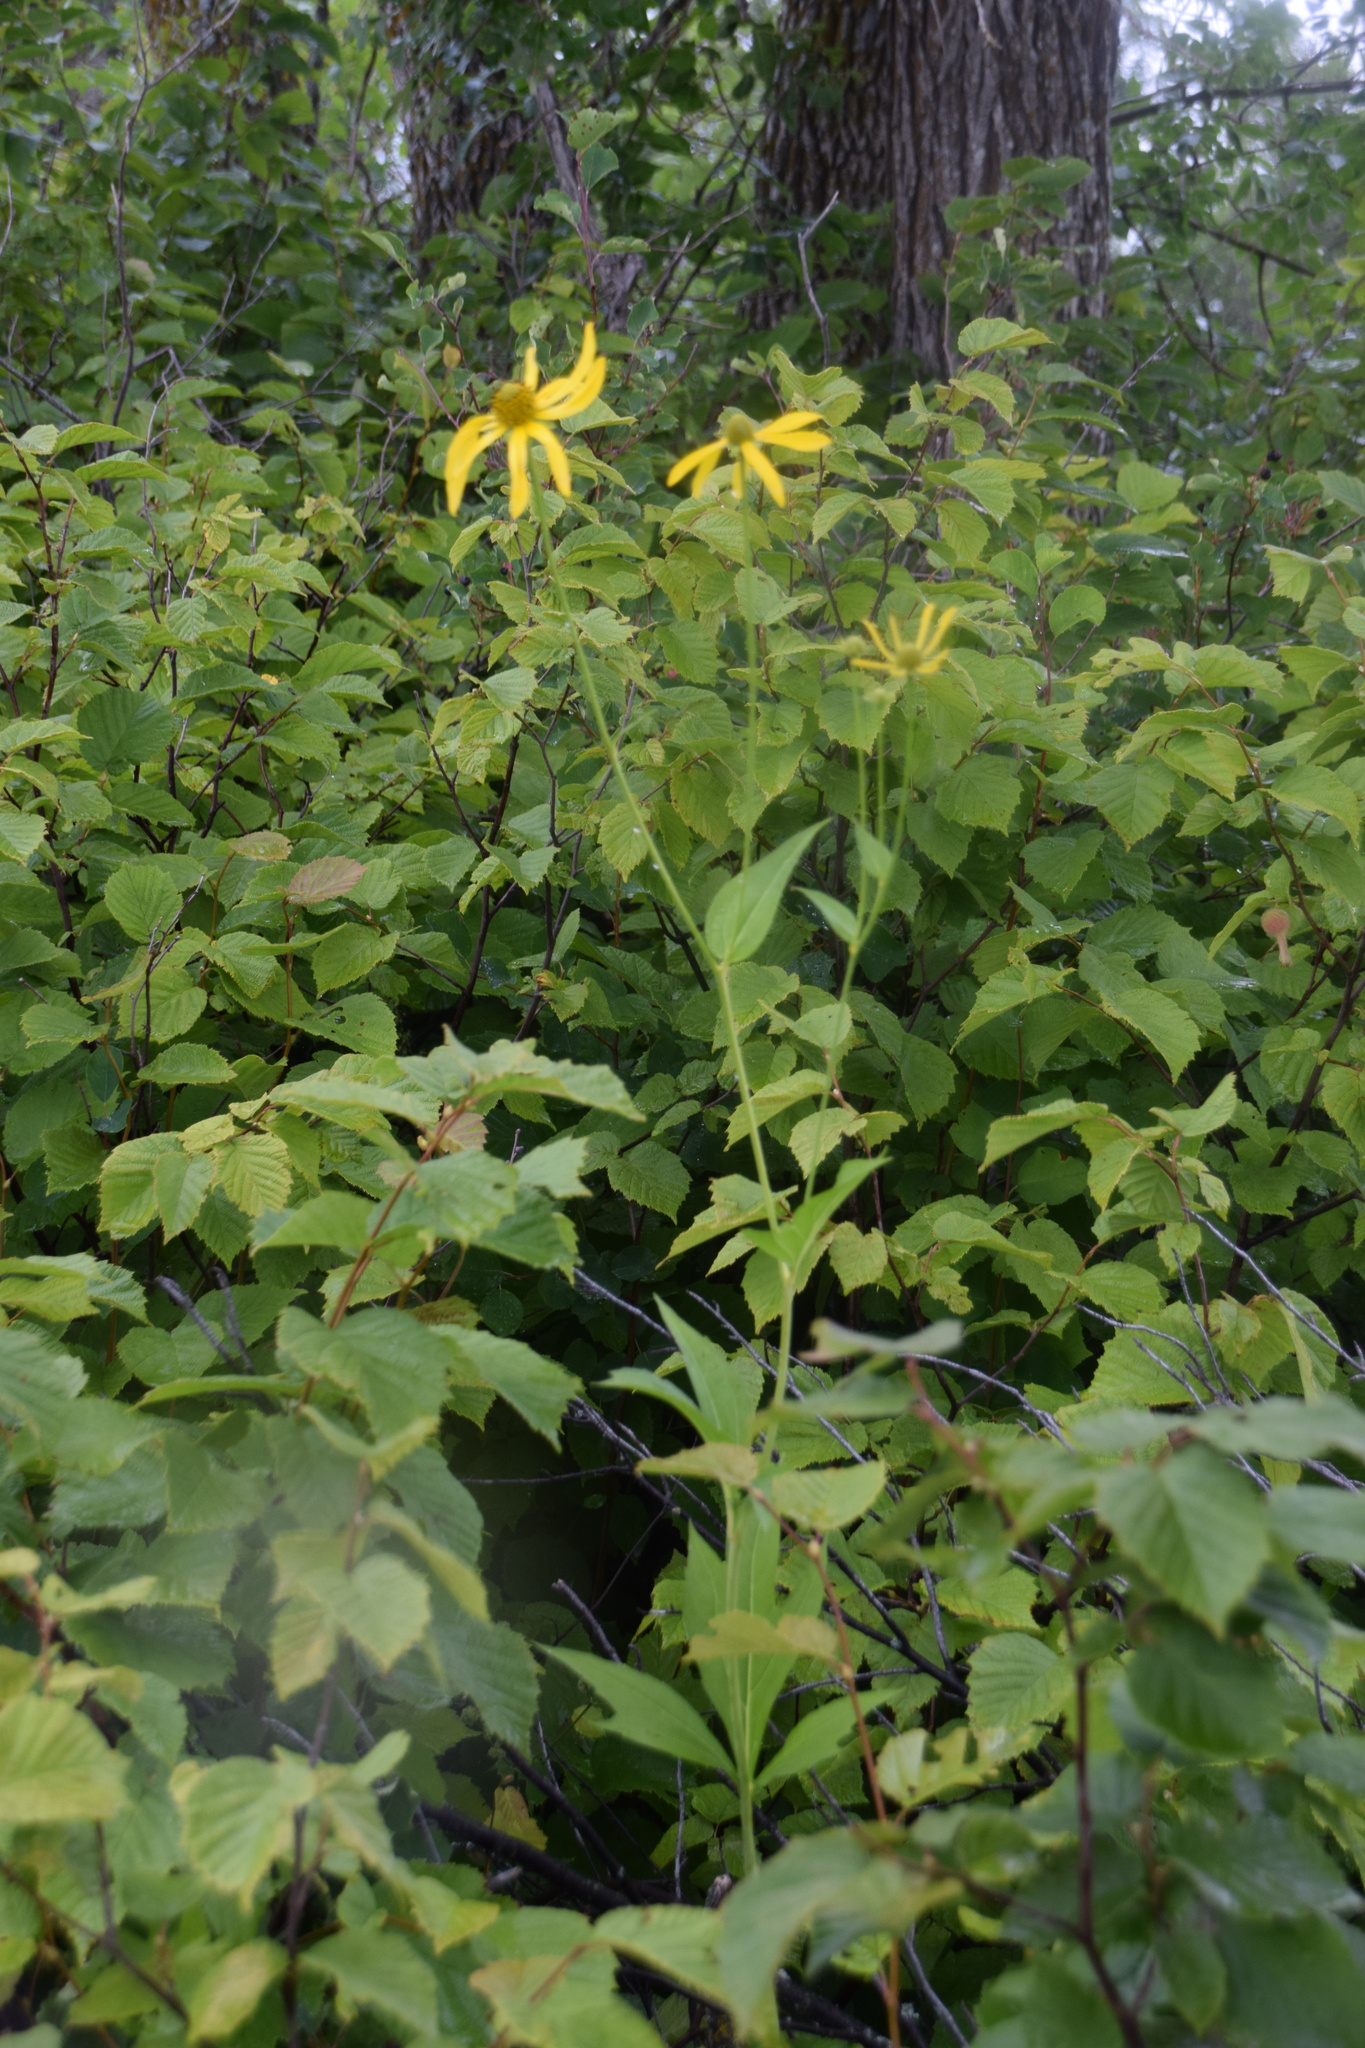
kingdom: Plantae
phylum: Tracheophyta
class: Magnoliopsida
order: Asterales
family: Asteraceae
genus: Rudbeckia
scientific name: Rudbeckia laciniata
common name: Coneflower
